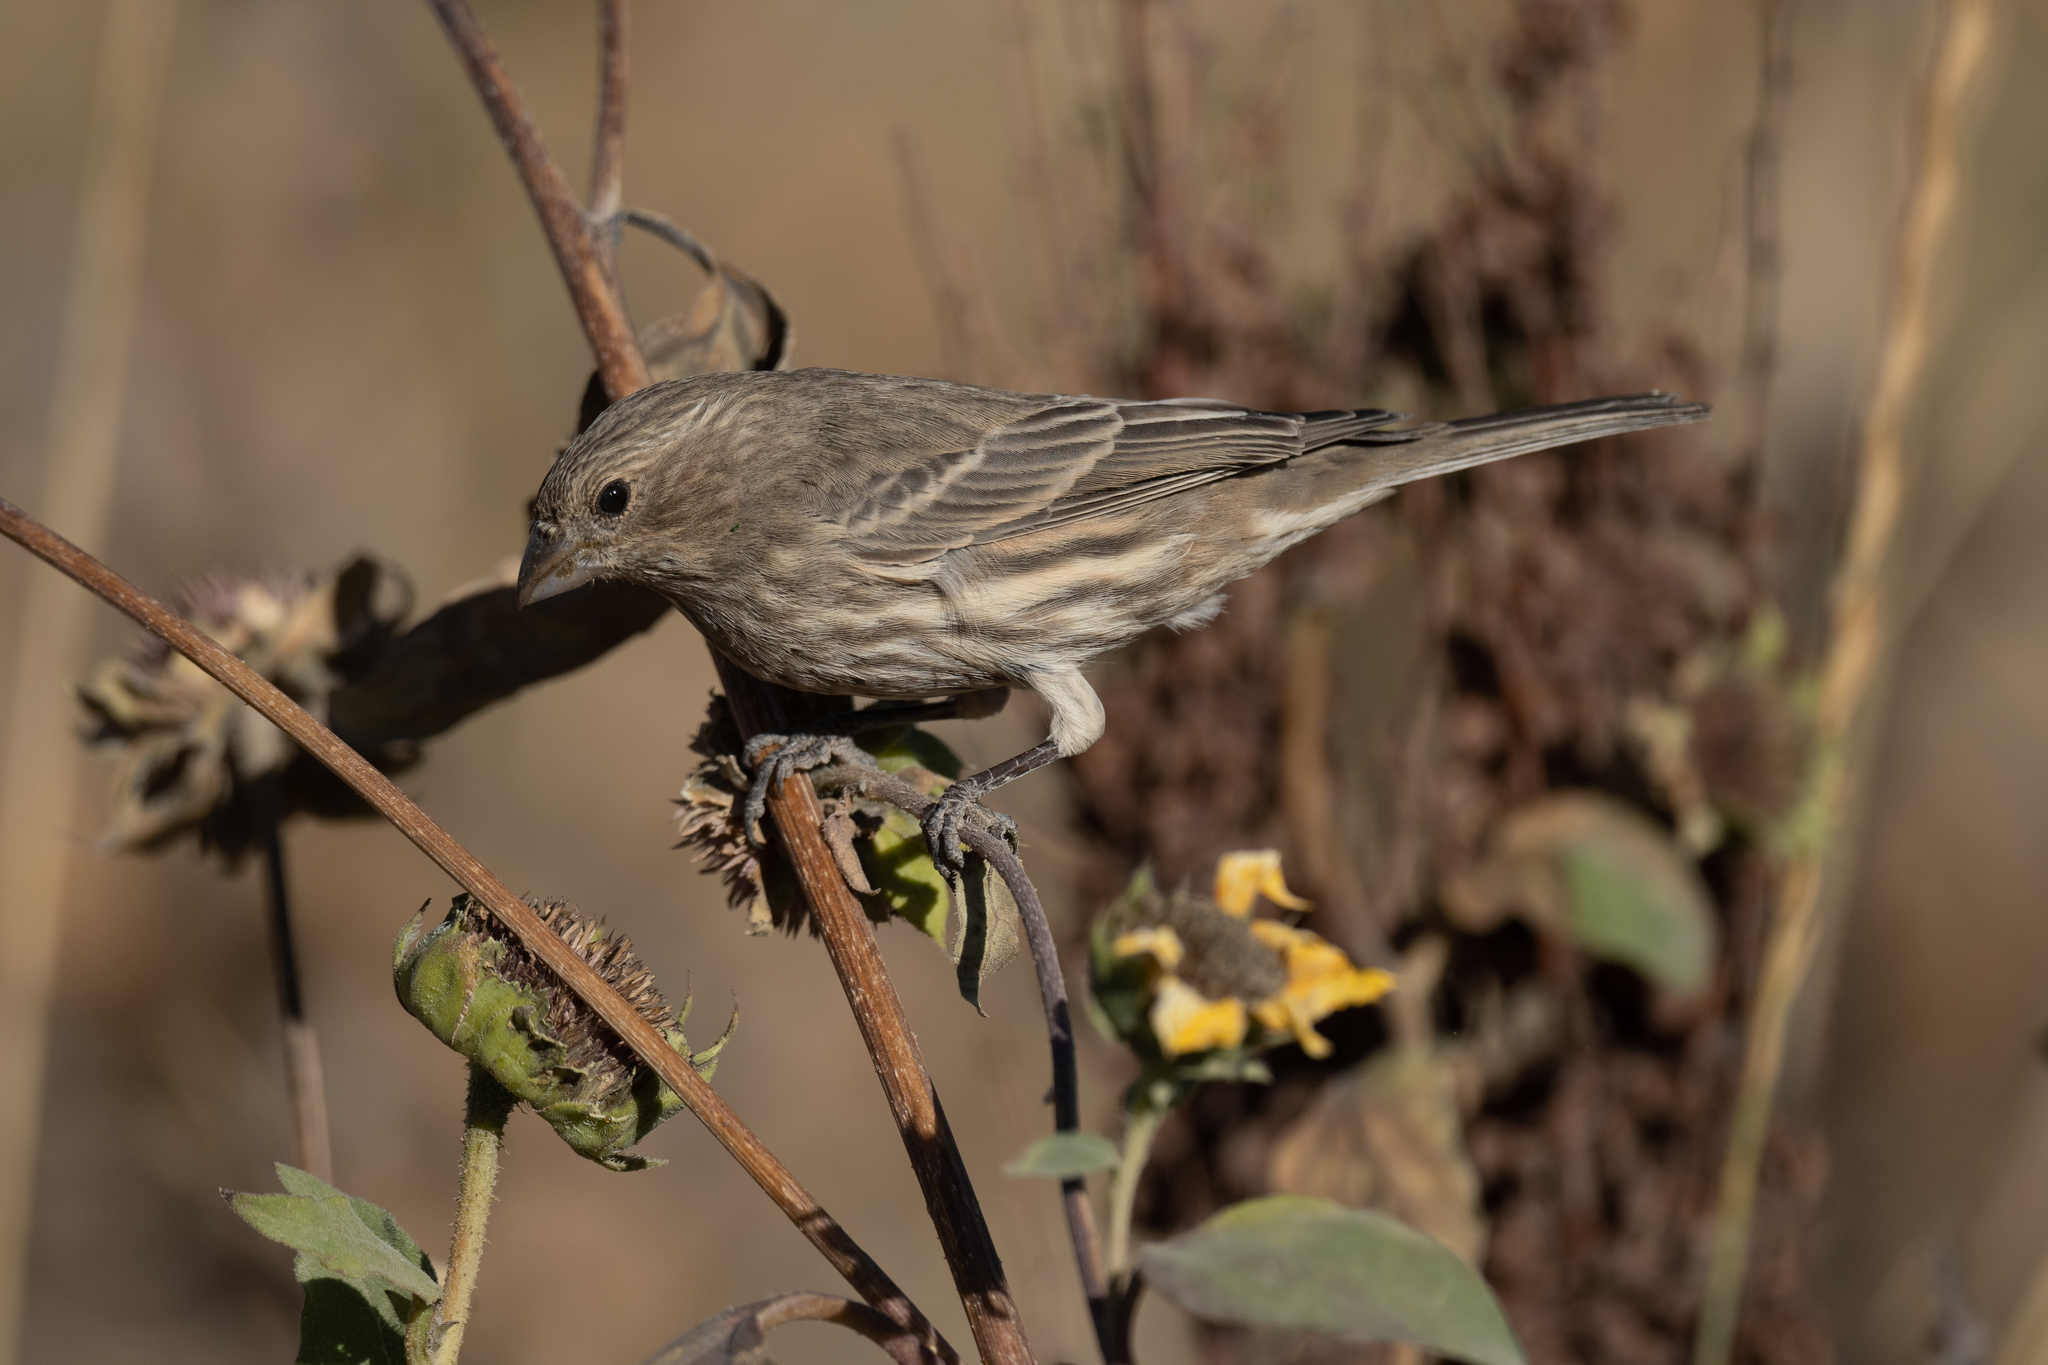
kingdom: Animalia
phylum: Chordata
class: Aves
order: Passeriformes
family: Fringillidae
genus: Haemorhous
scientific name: Haemorhous mexicanus
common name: House finch
